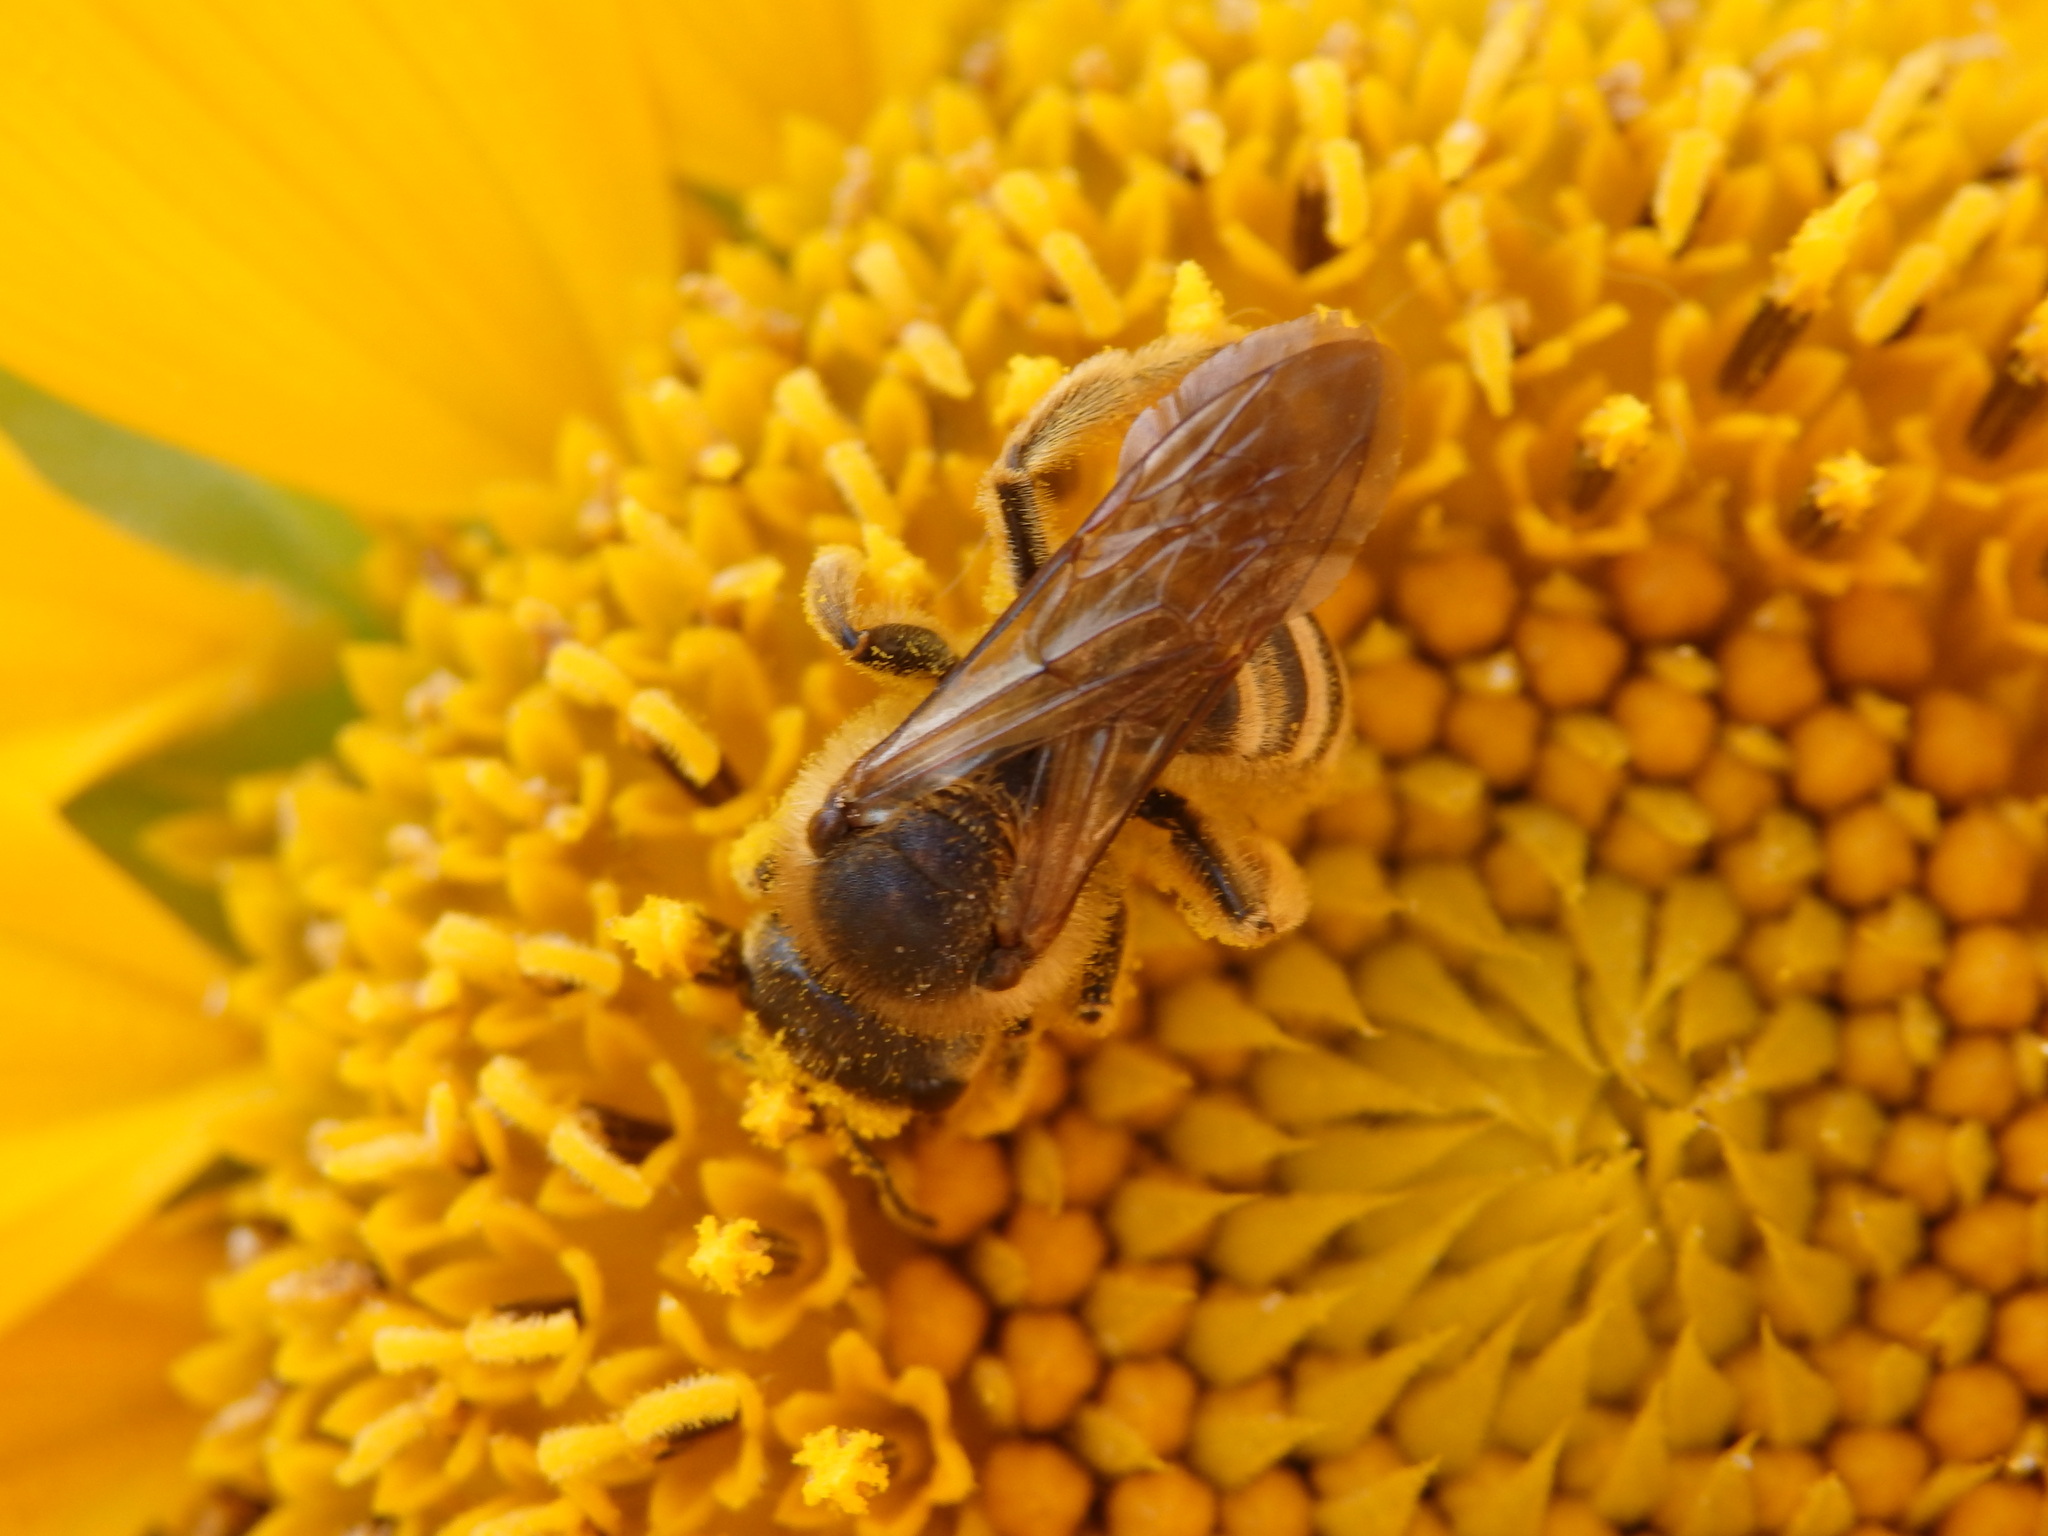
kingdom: Animalia
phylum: Arthropoda
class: Insecta
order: Hymenoptera
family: Halictidae
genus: Halictus
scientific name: Halictus scabiosae
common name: Great banded furrow bee
